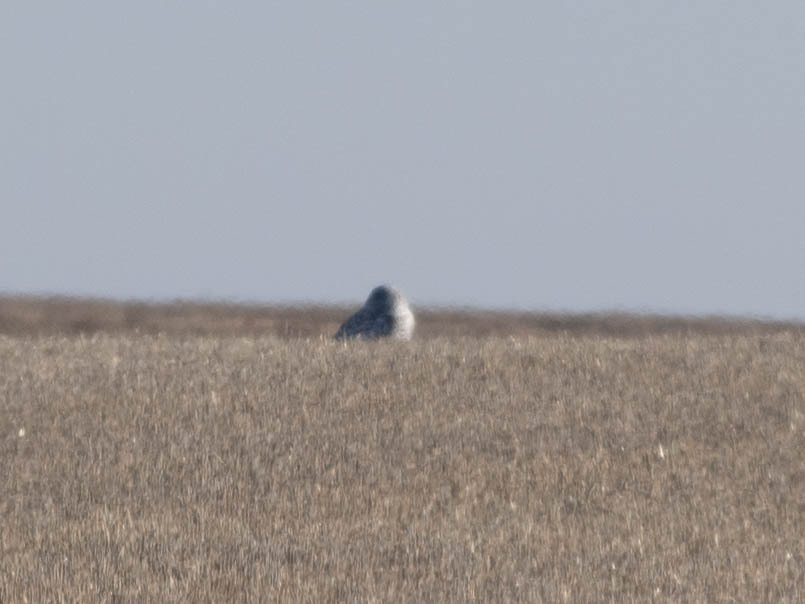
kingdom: Animalia
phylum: Chordata
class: Aves
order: Strigiformes
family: Strigidae
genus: Bubo
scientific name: Bubo scandiacus
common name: Snowy owl
